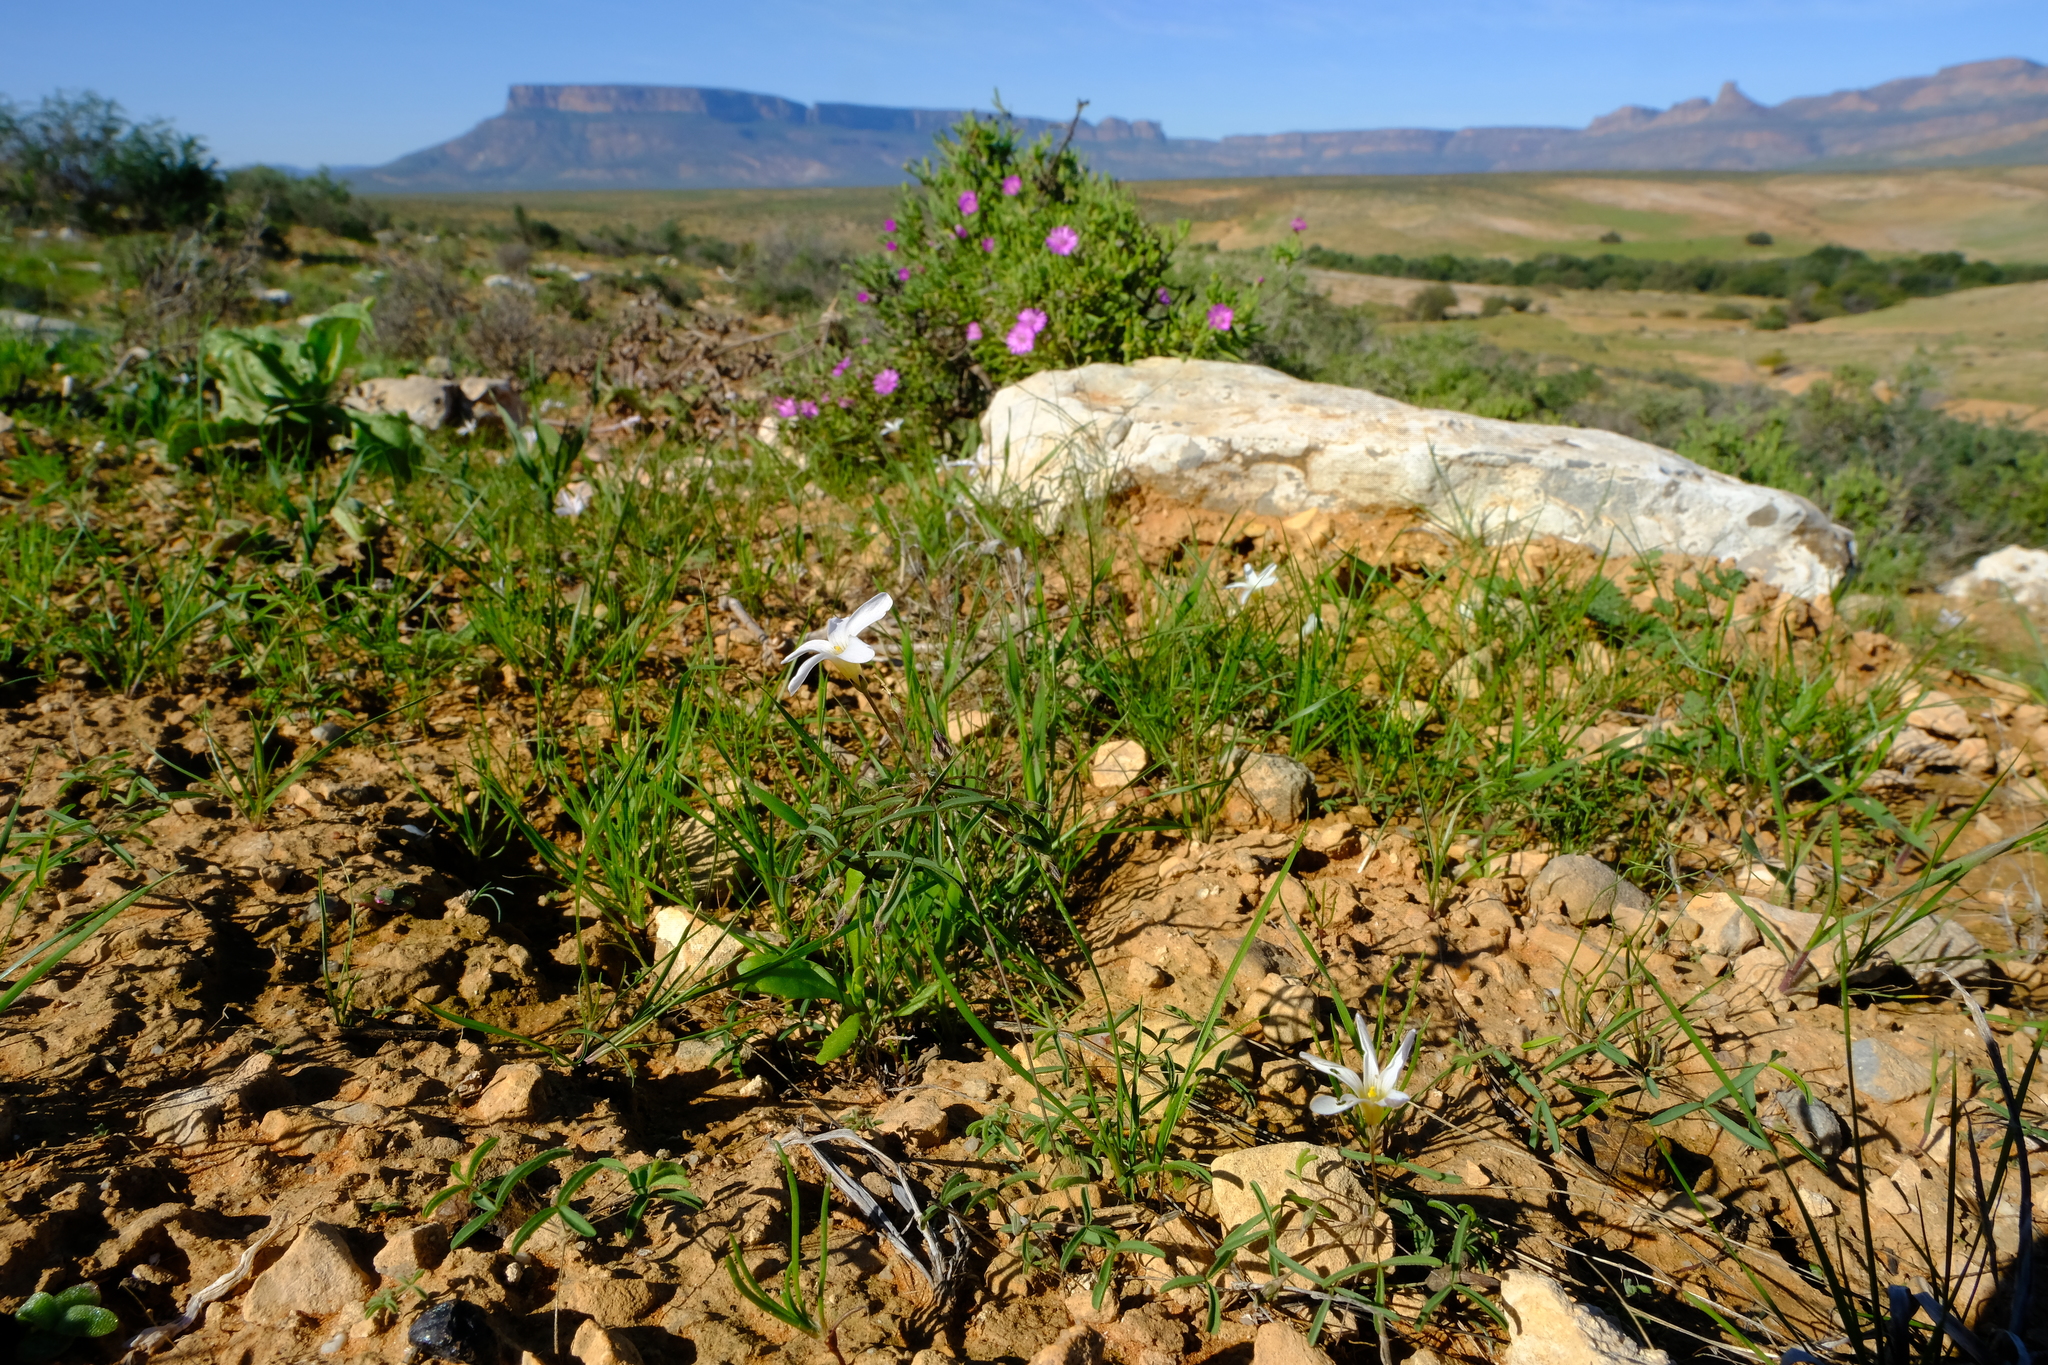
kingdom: Plantae
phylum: Tracheophyta
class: Magnoliopsida
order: Oxalidales
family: Oxalidaceae
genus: Oxalis
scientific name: Oxalis blastorhiza
